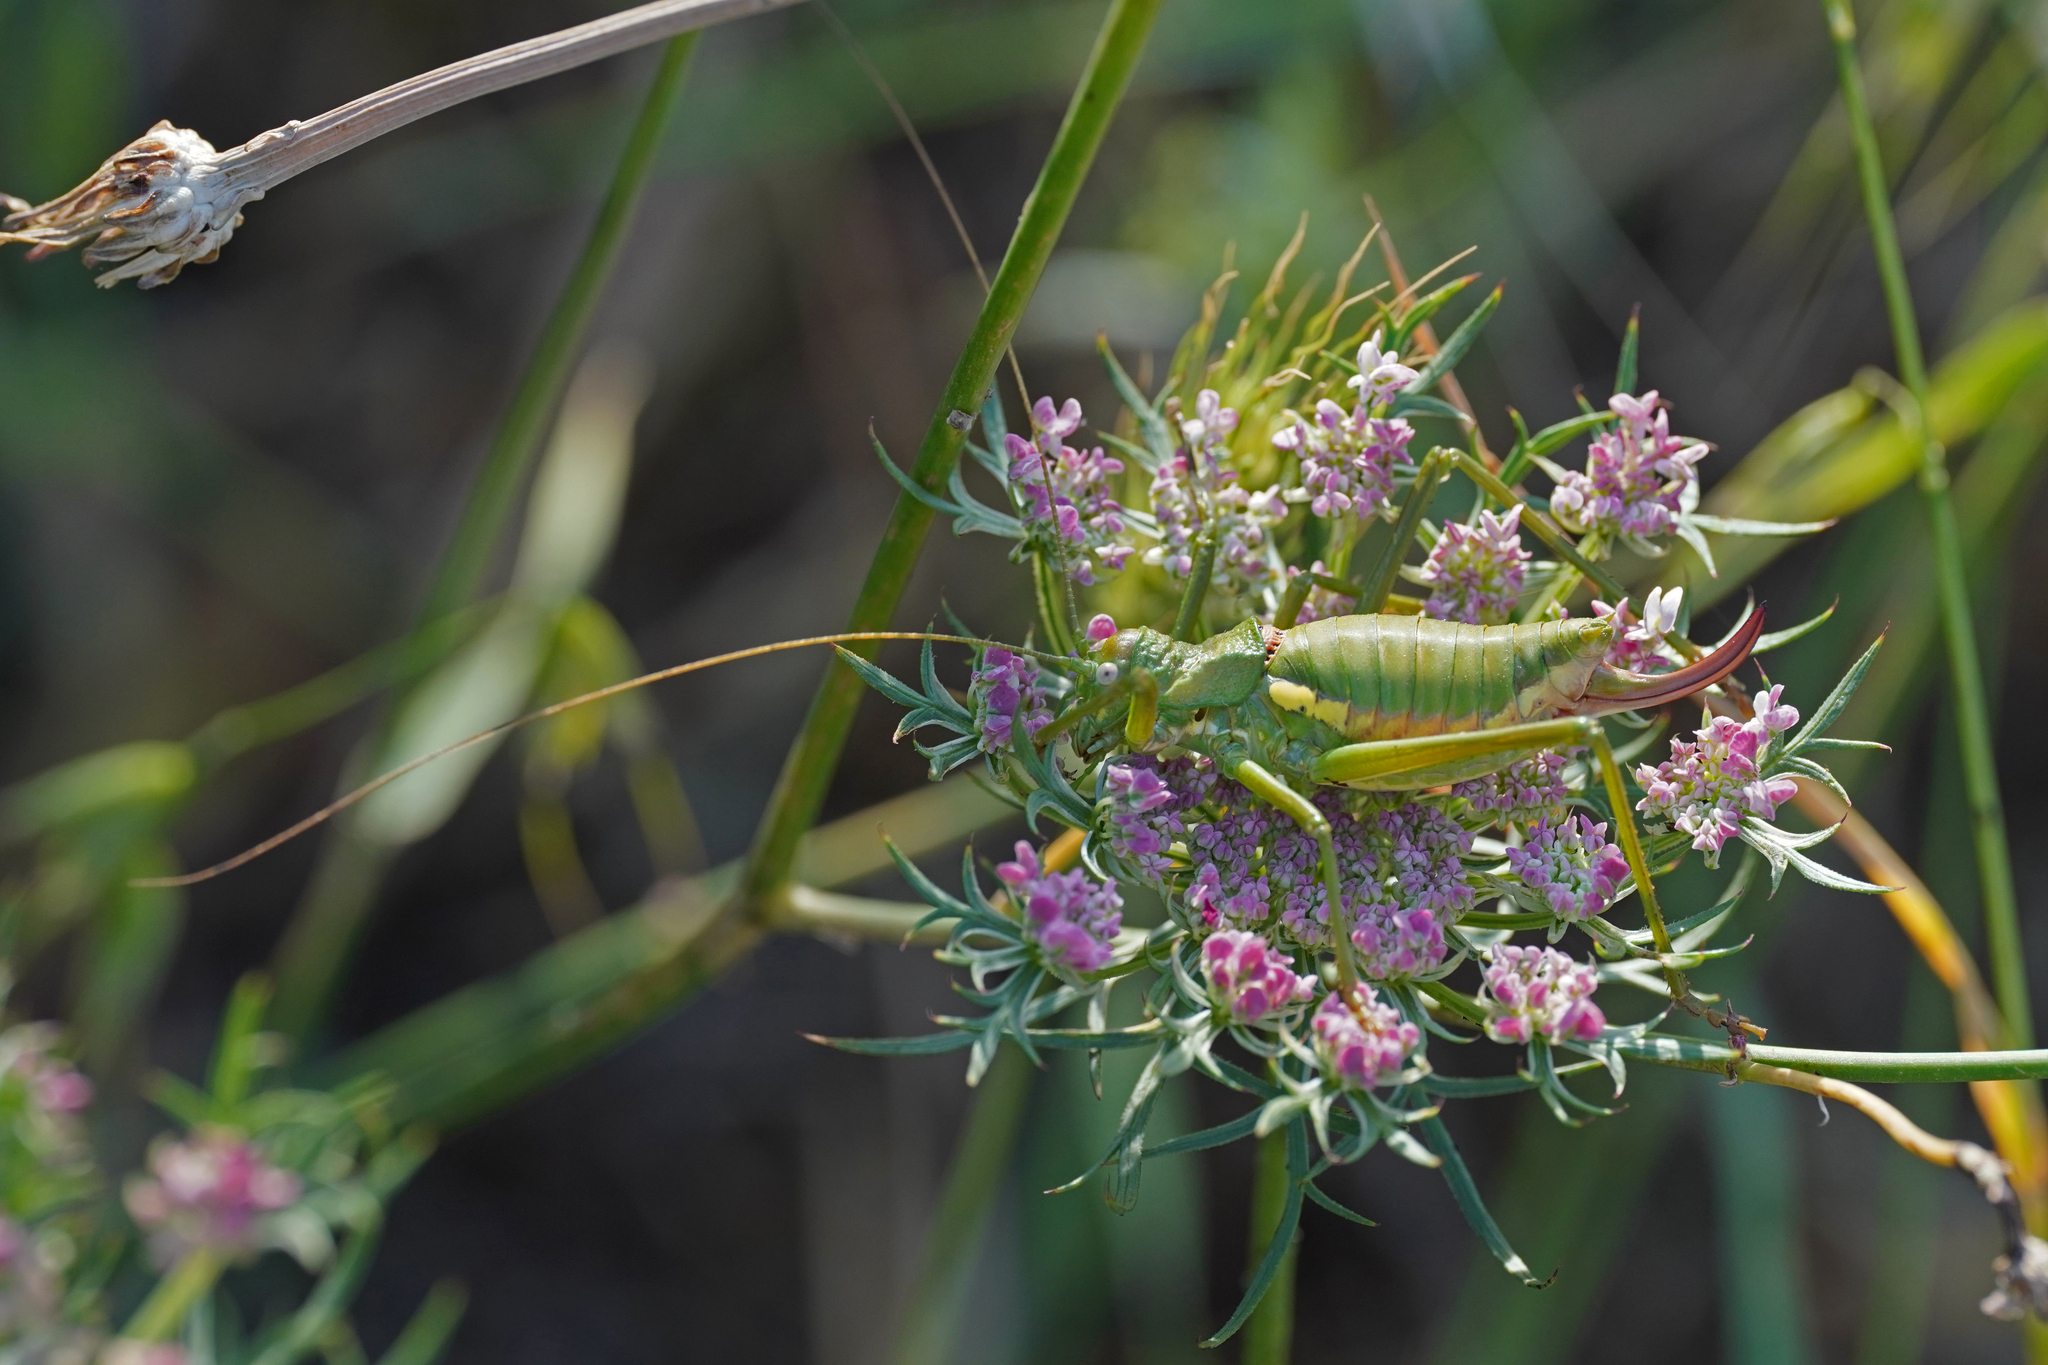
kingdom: Animalia
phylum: Arthropoda
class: Insecta
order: Orthoptera
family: Tettigoniidae
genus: Uromenus
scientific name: Uromenus brevicollis
